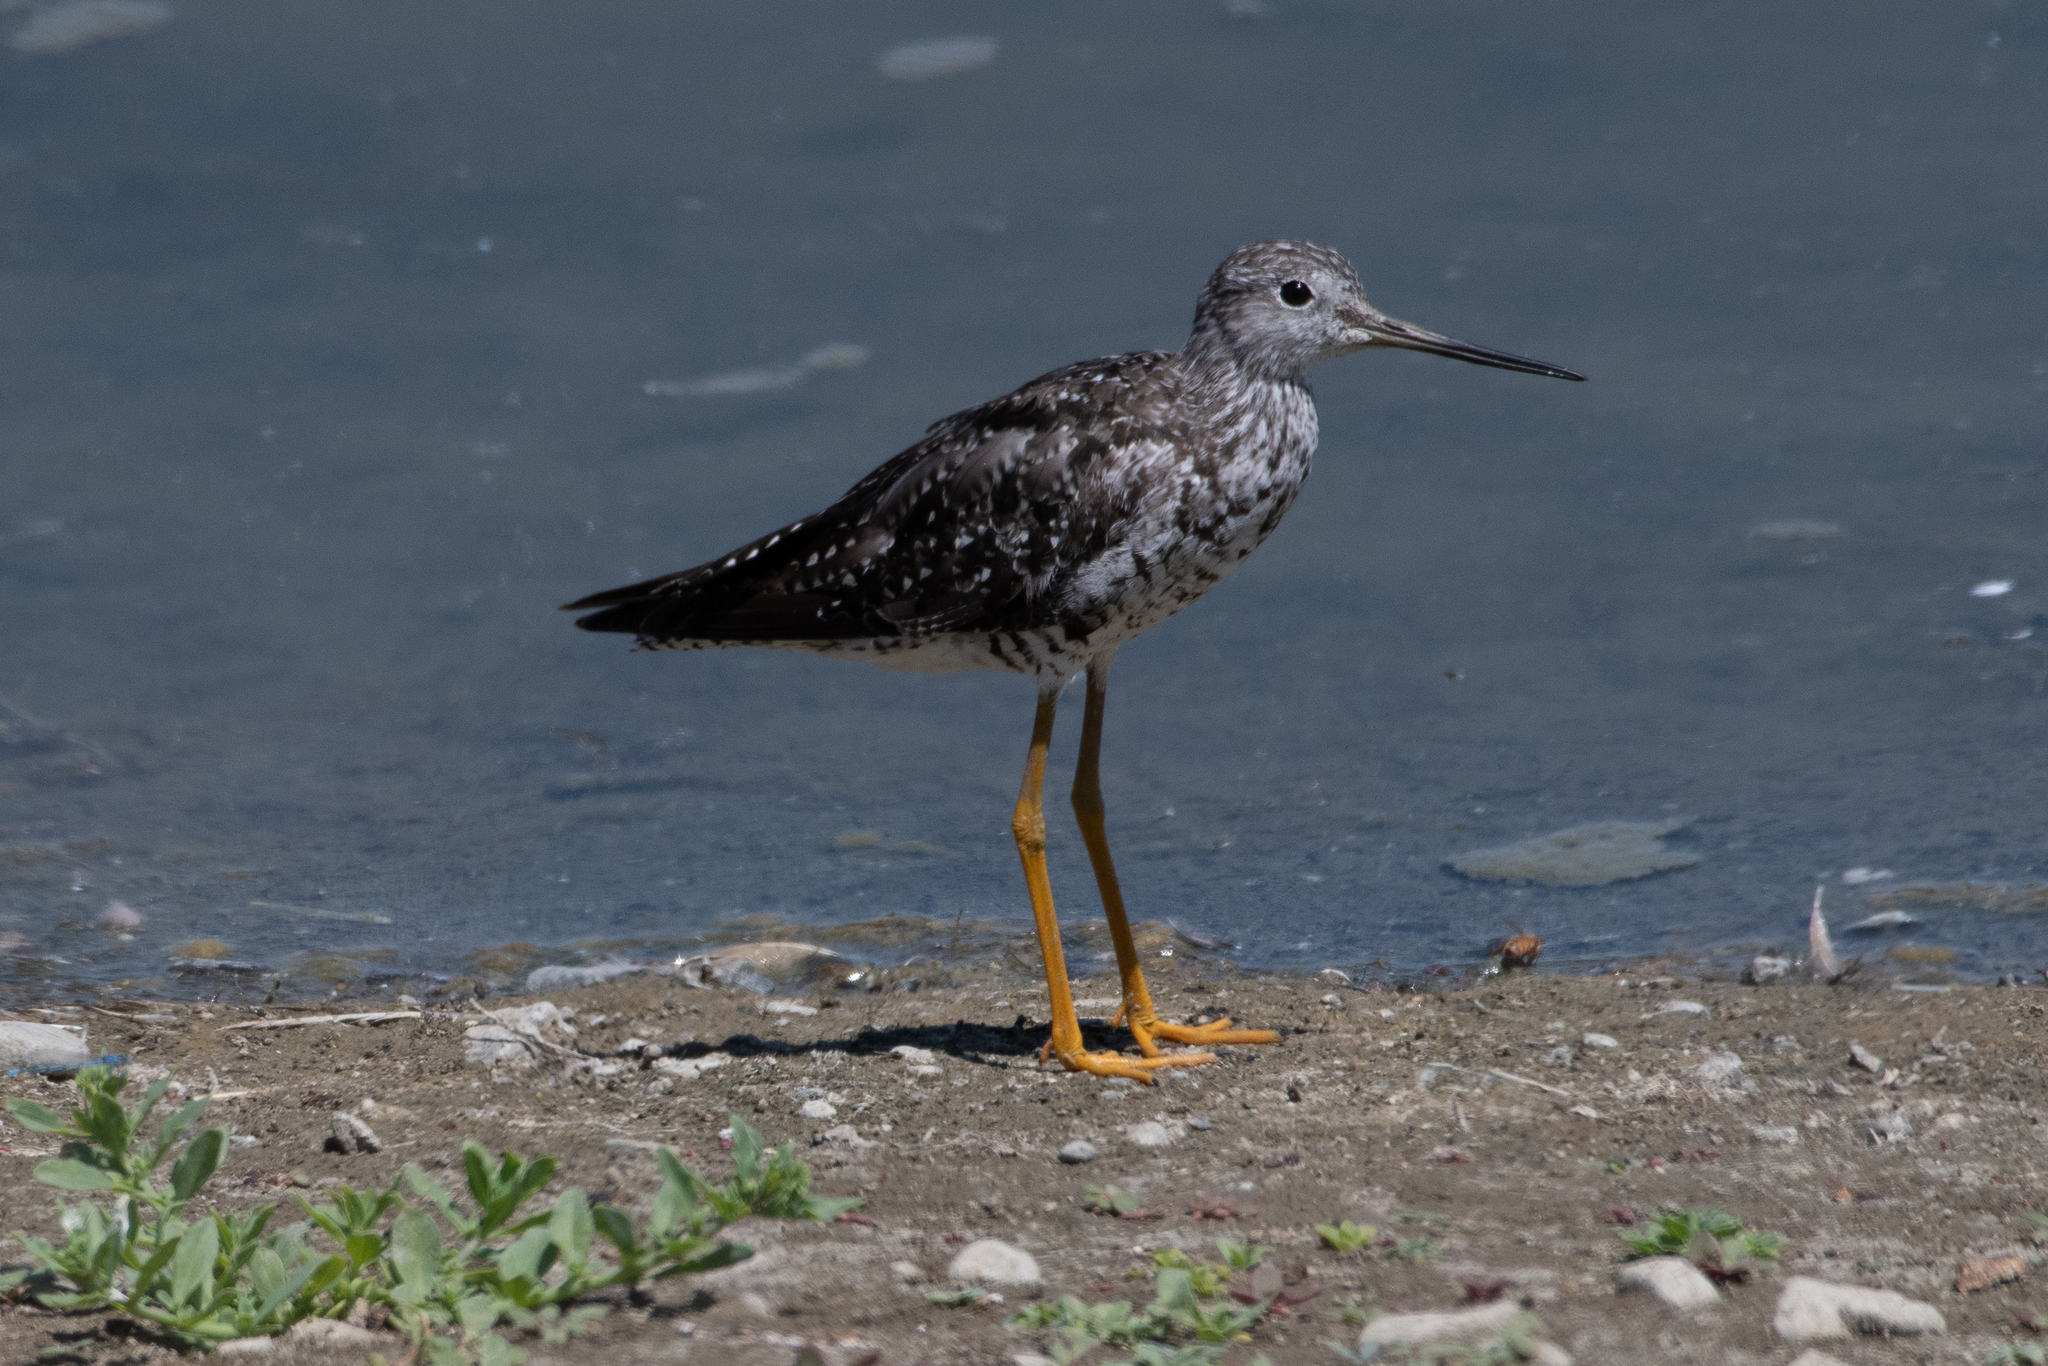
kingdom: Animalia
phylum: Chordata
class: Aves
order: Charadriiformes
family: Scolopacidae
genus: Tringa
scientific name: Tringa melanoleuca
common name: Greater yellowlegs
